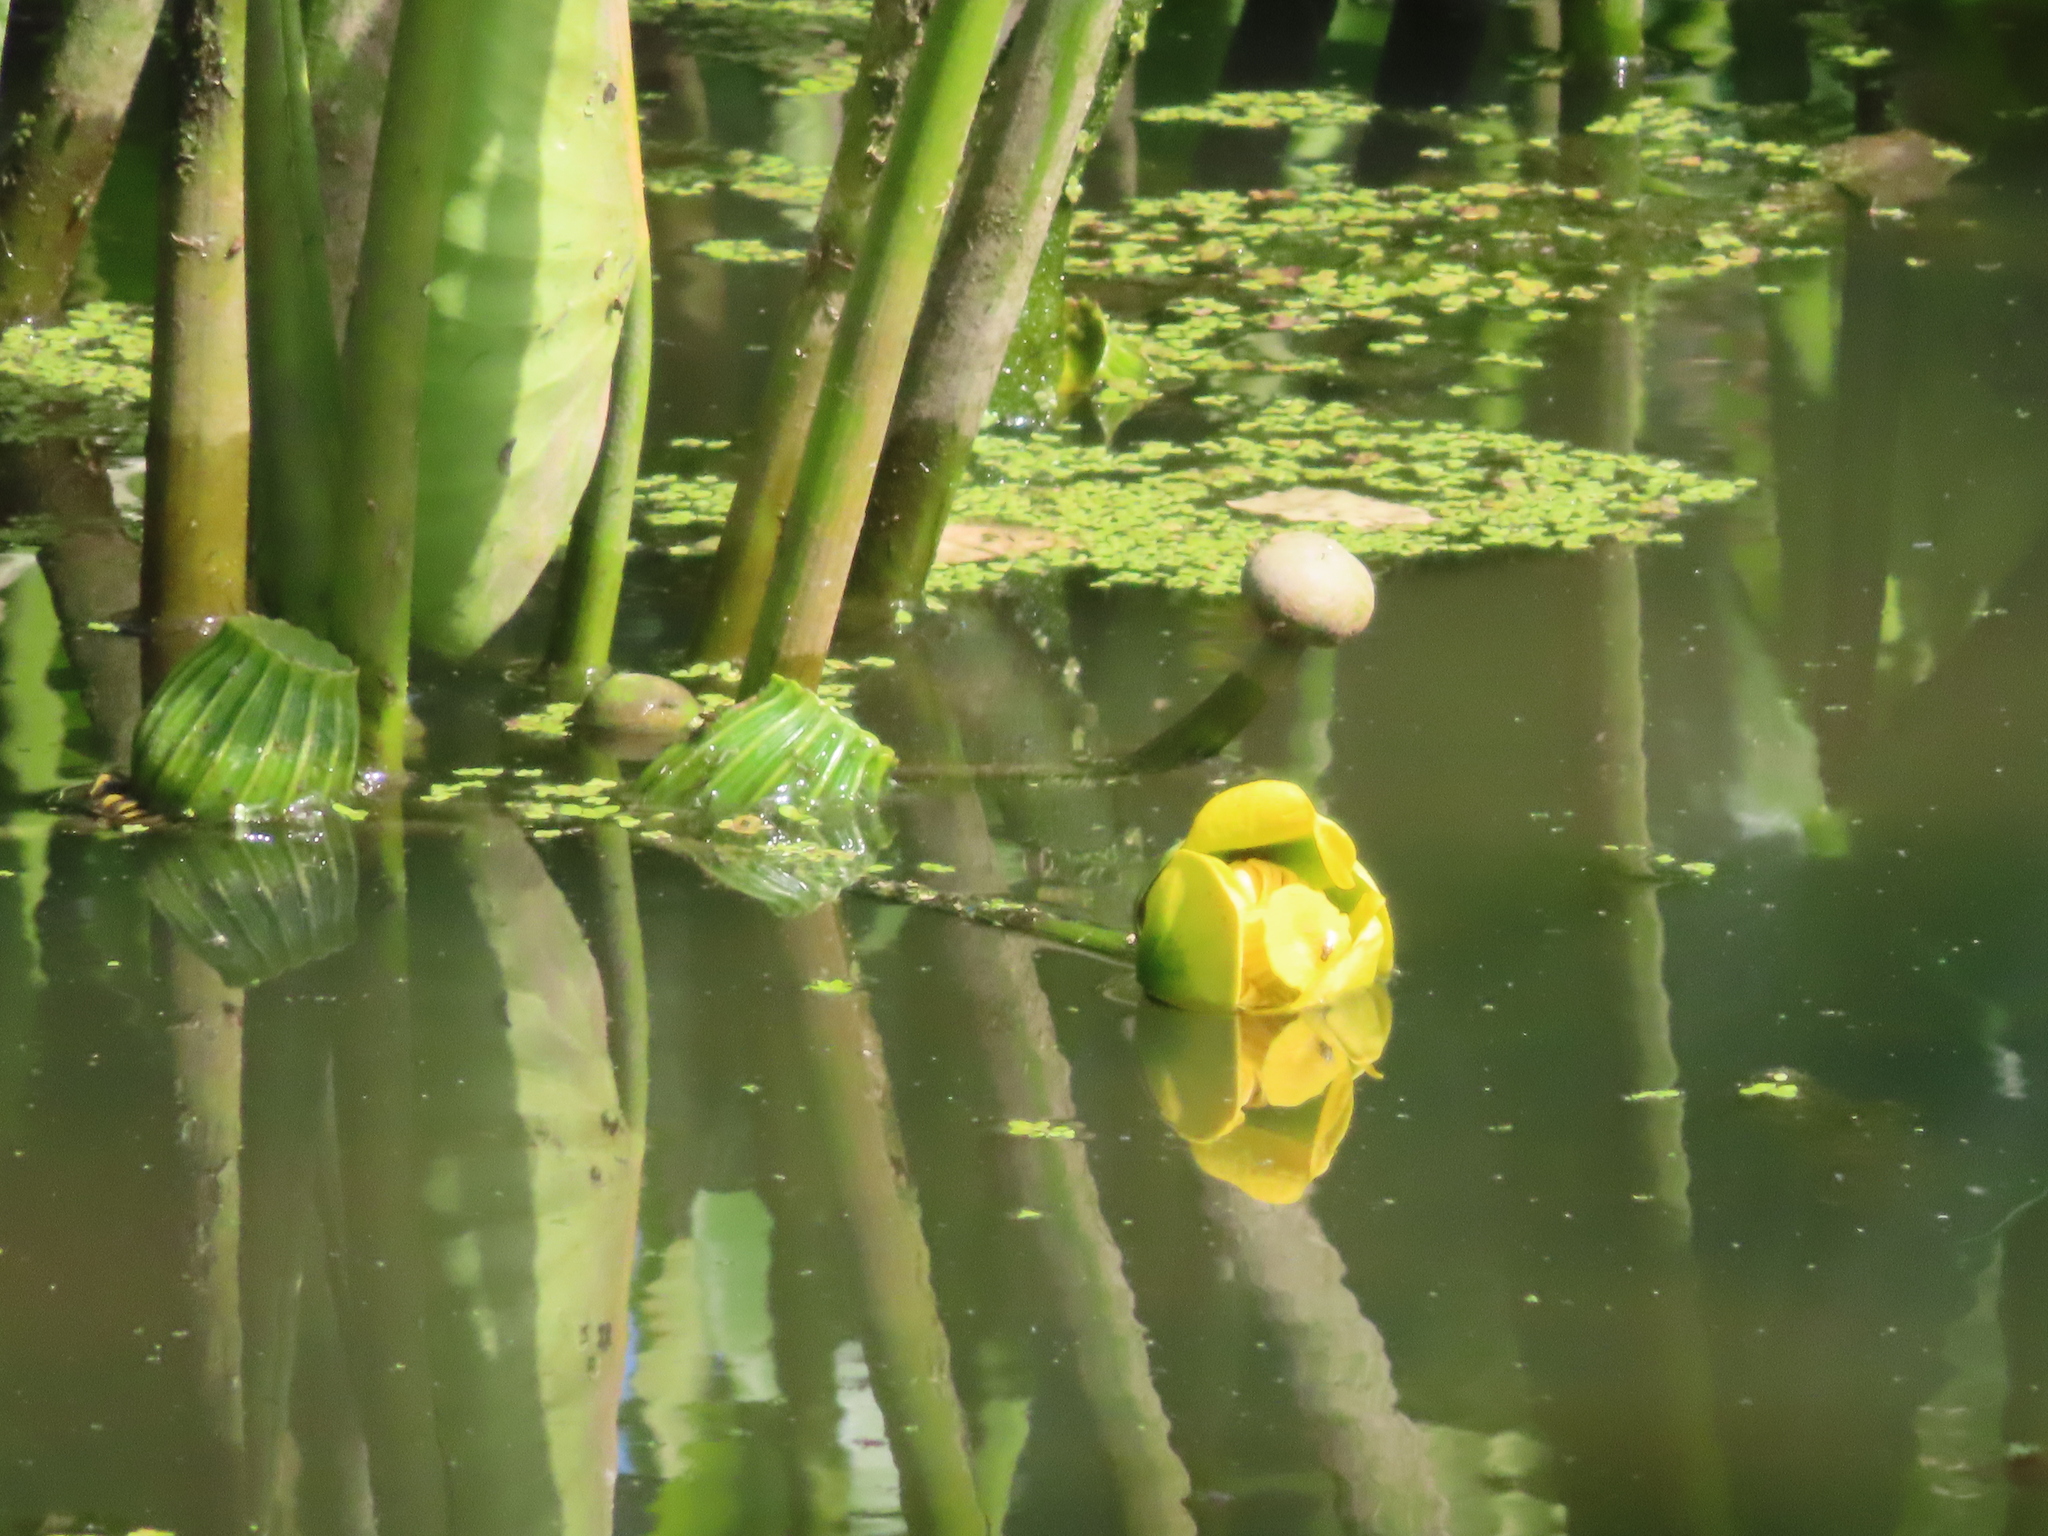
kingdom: Plantae
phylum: Tracheophyta
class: Magnoliopsida
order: Nymphaeales
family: Nymphaeaceae
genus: Nuphar
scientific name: Nuphar advena
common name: Spatter-dock
